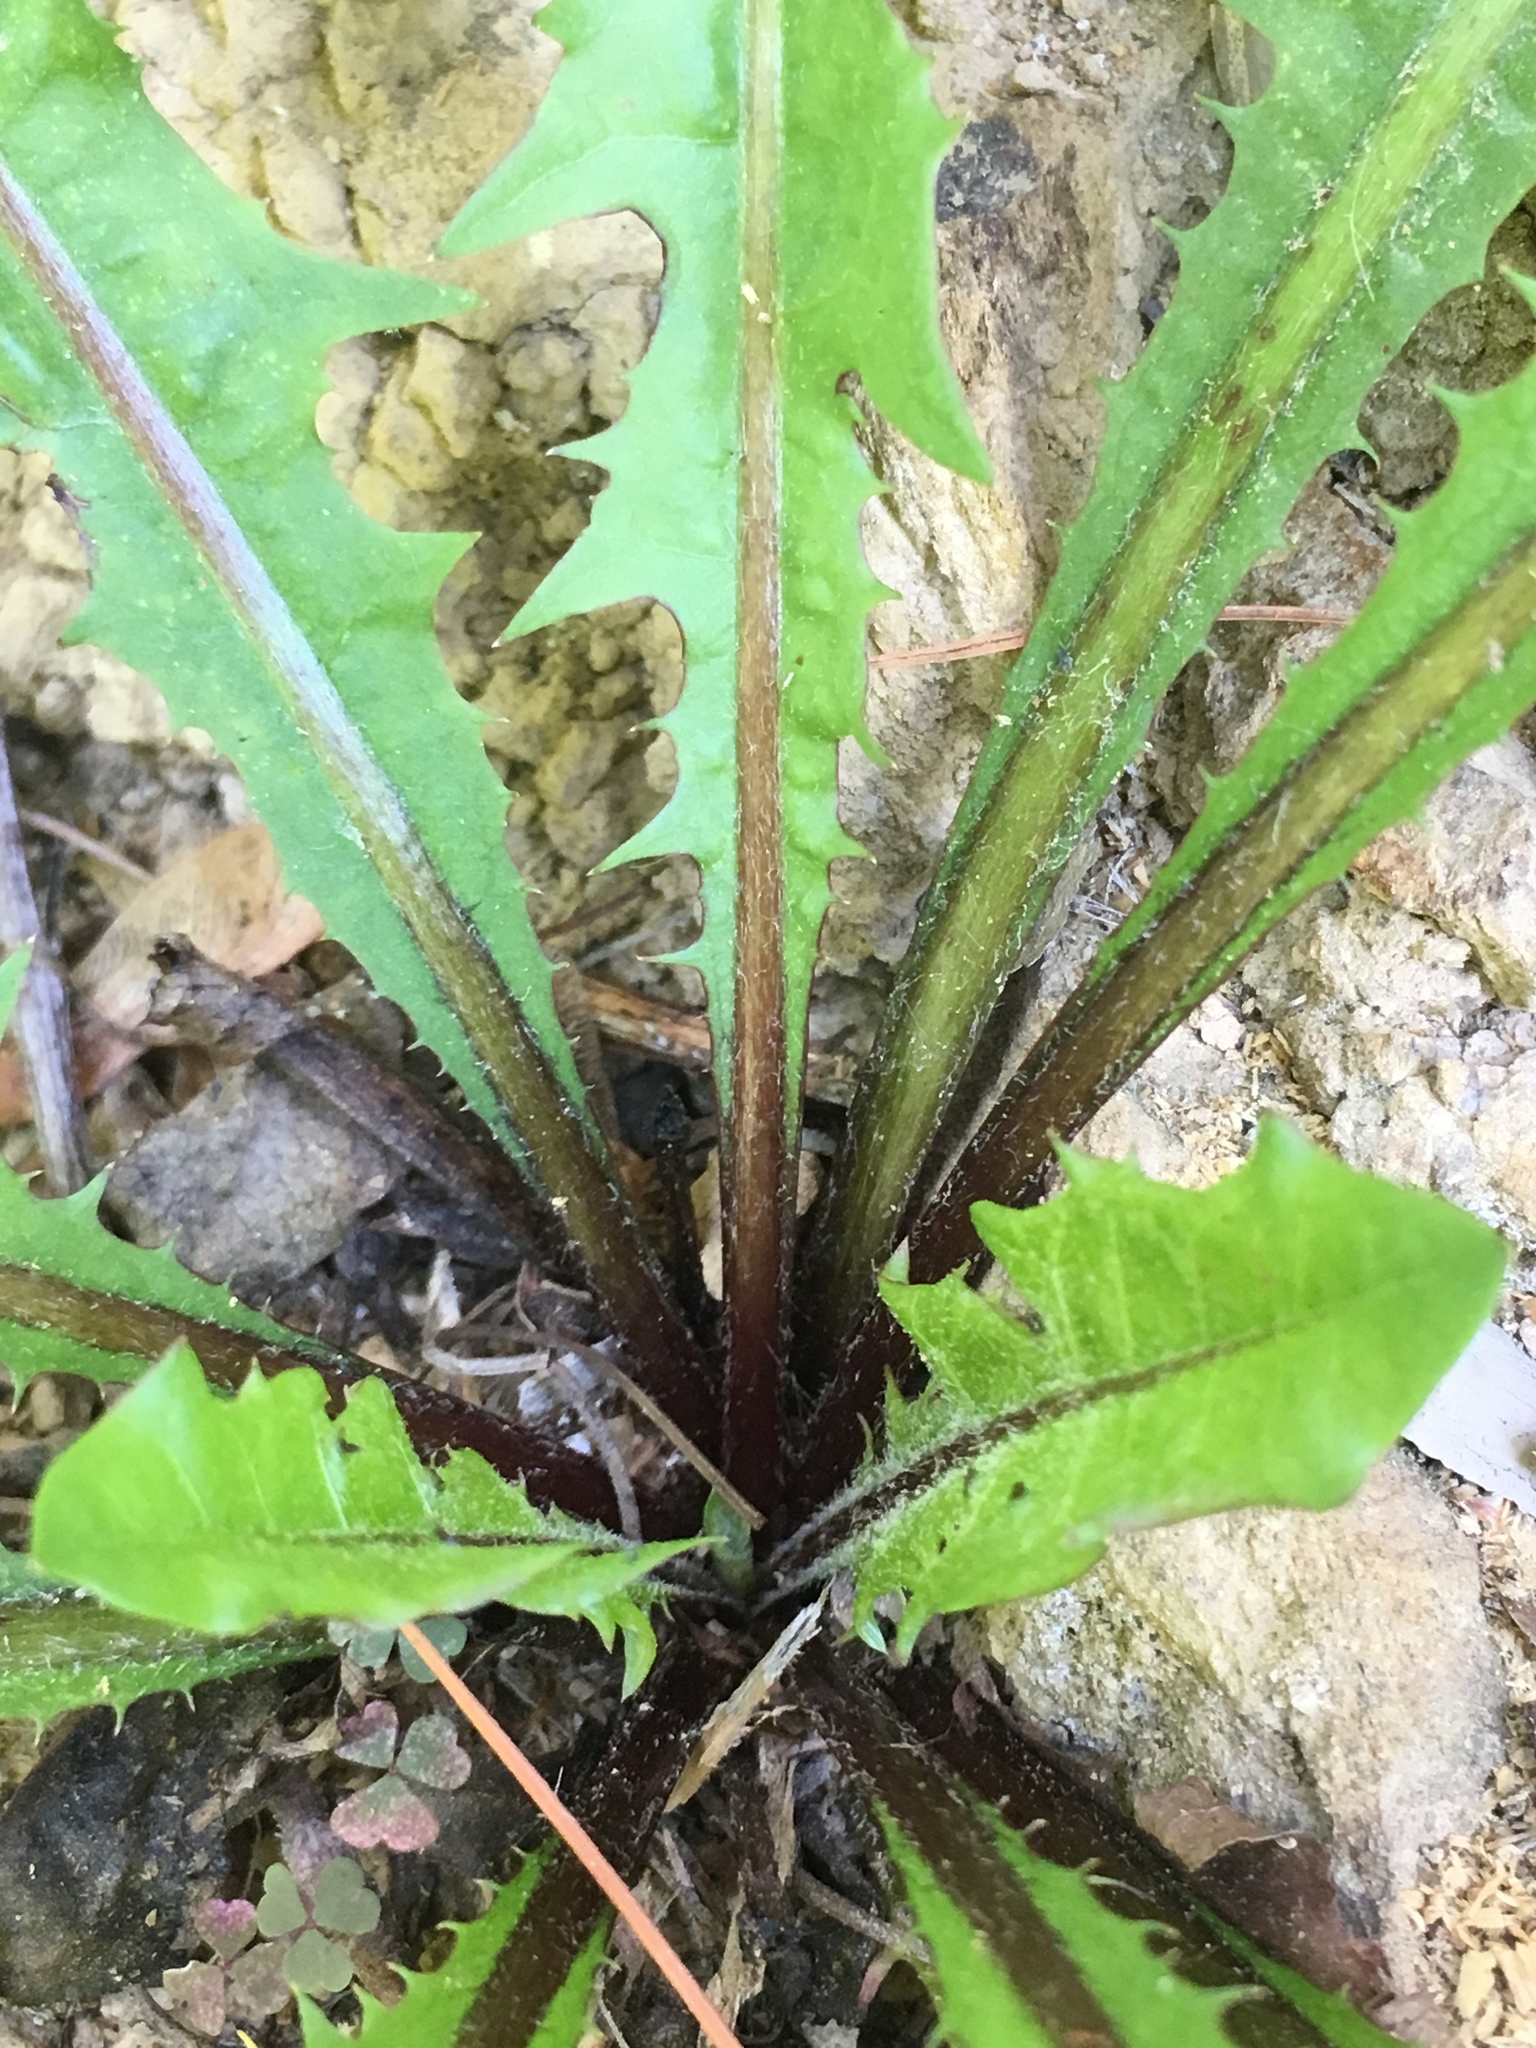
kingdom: Plantae
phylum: Tracheophyta
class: Magnoliopsida
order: Asterales
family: Asteraceae
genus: Taraxacum
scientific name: Taraxacum officinale
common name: Common dandelion
